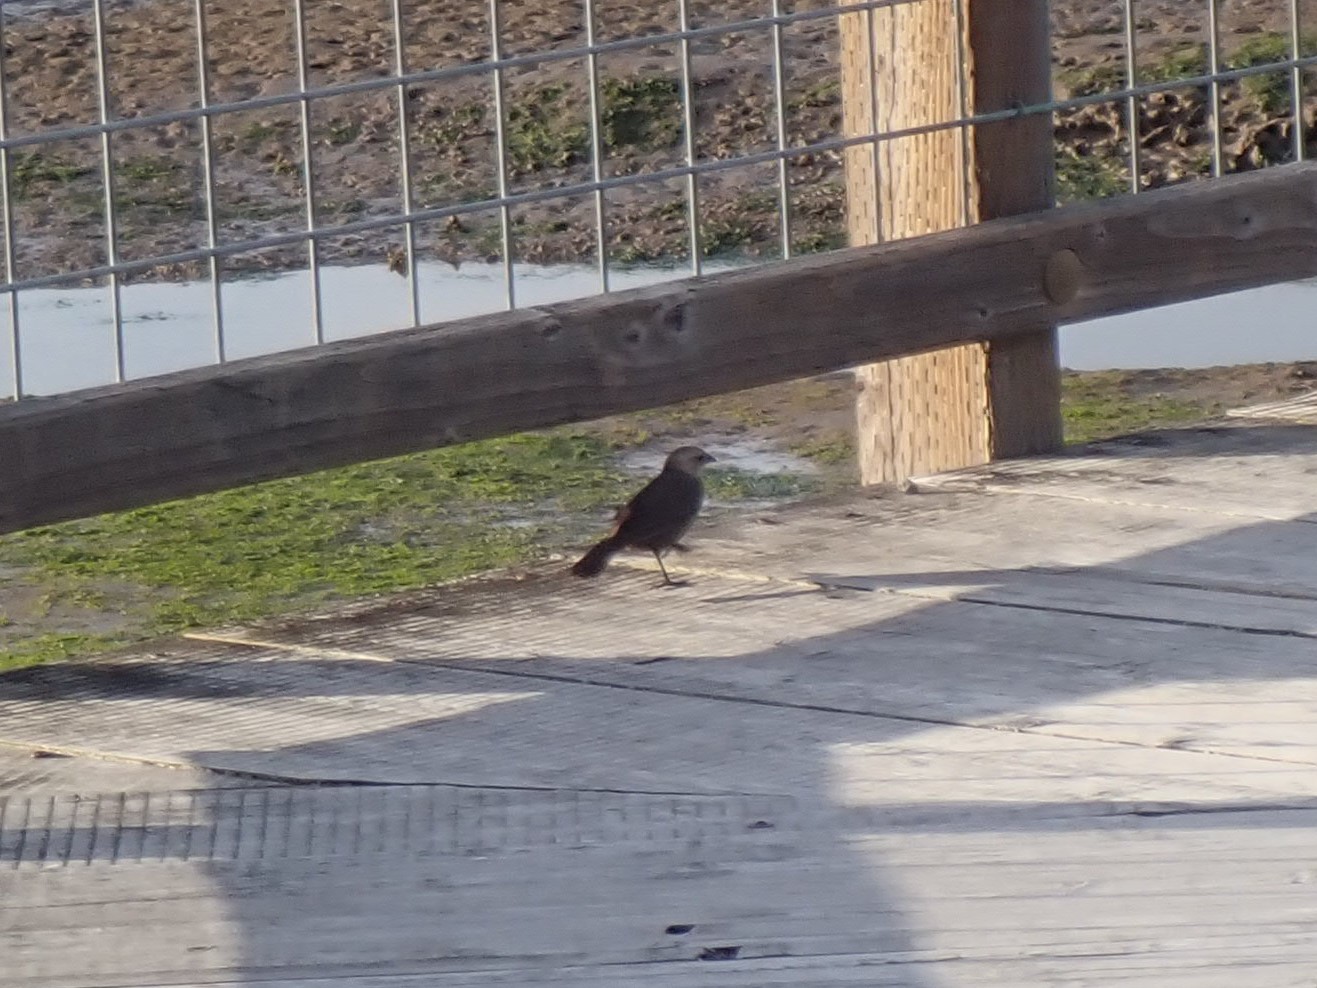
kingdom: Animalia
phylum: Chordata
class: Aves
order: Passeriformes
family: Icteridae
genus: Molothrus
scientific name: Molothrus ater
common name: Brown-headed cowbird
